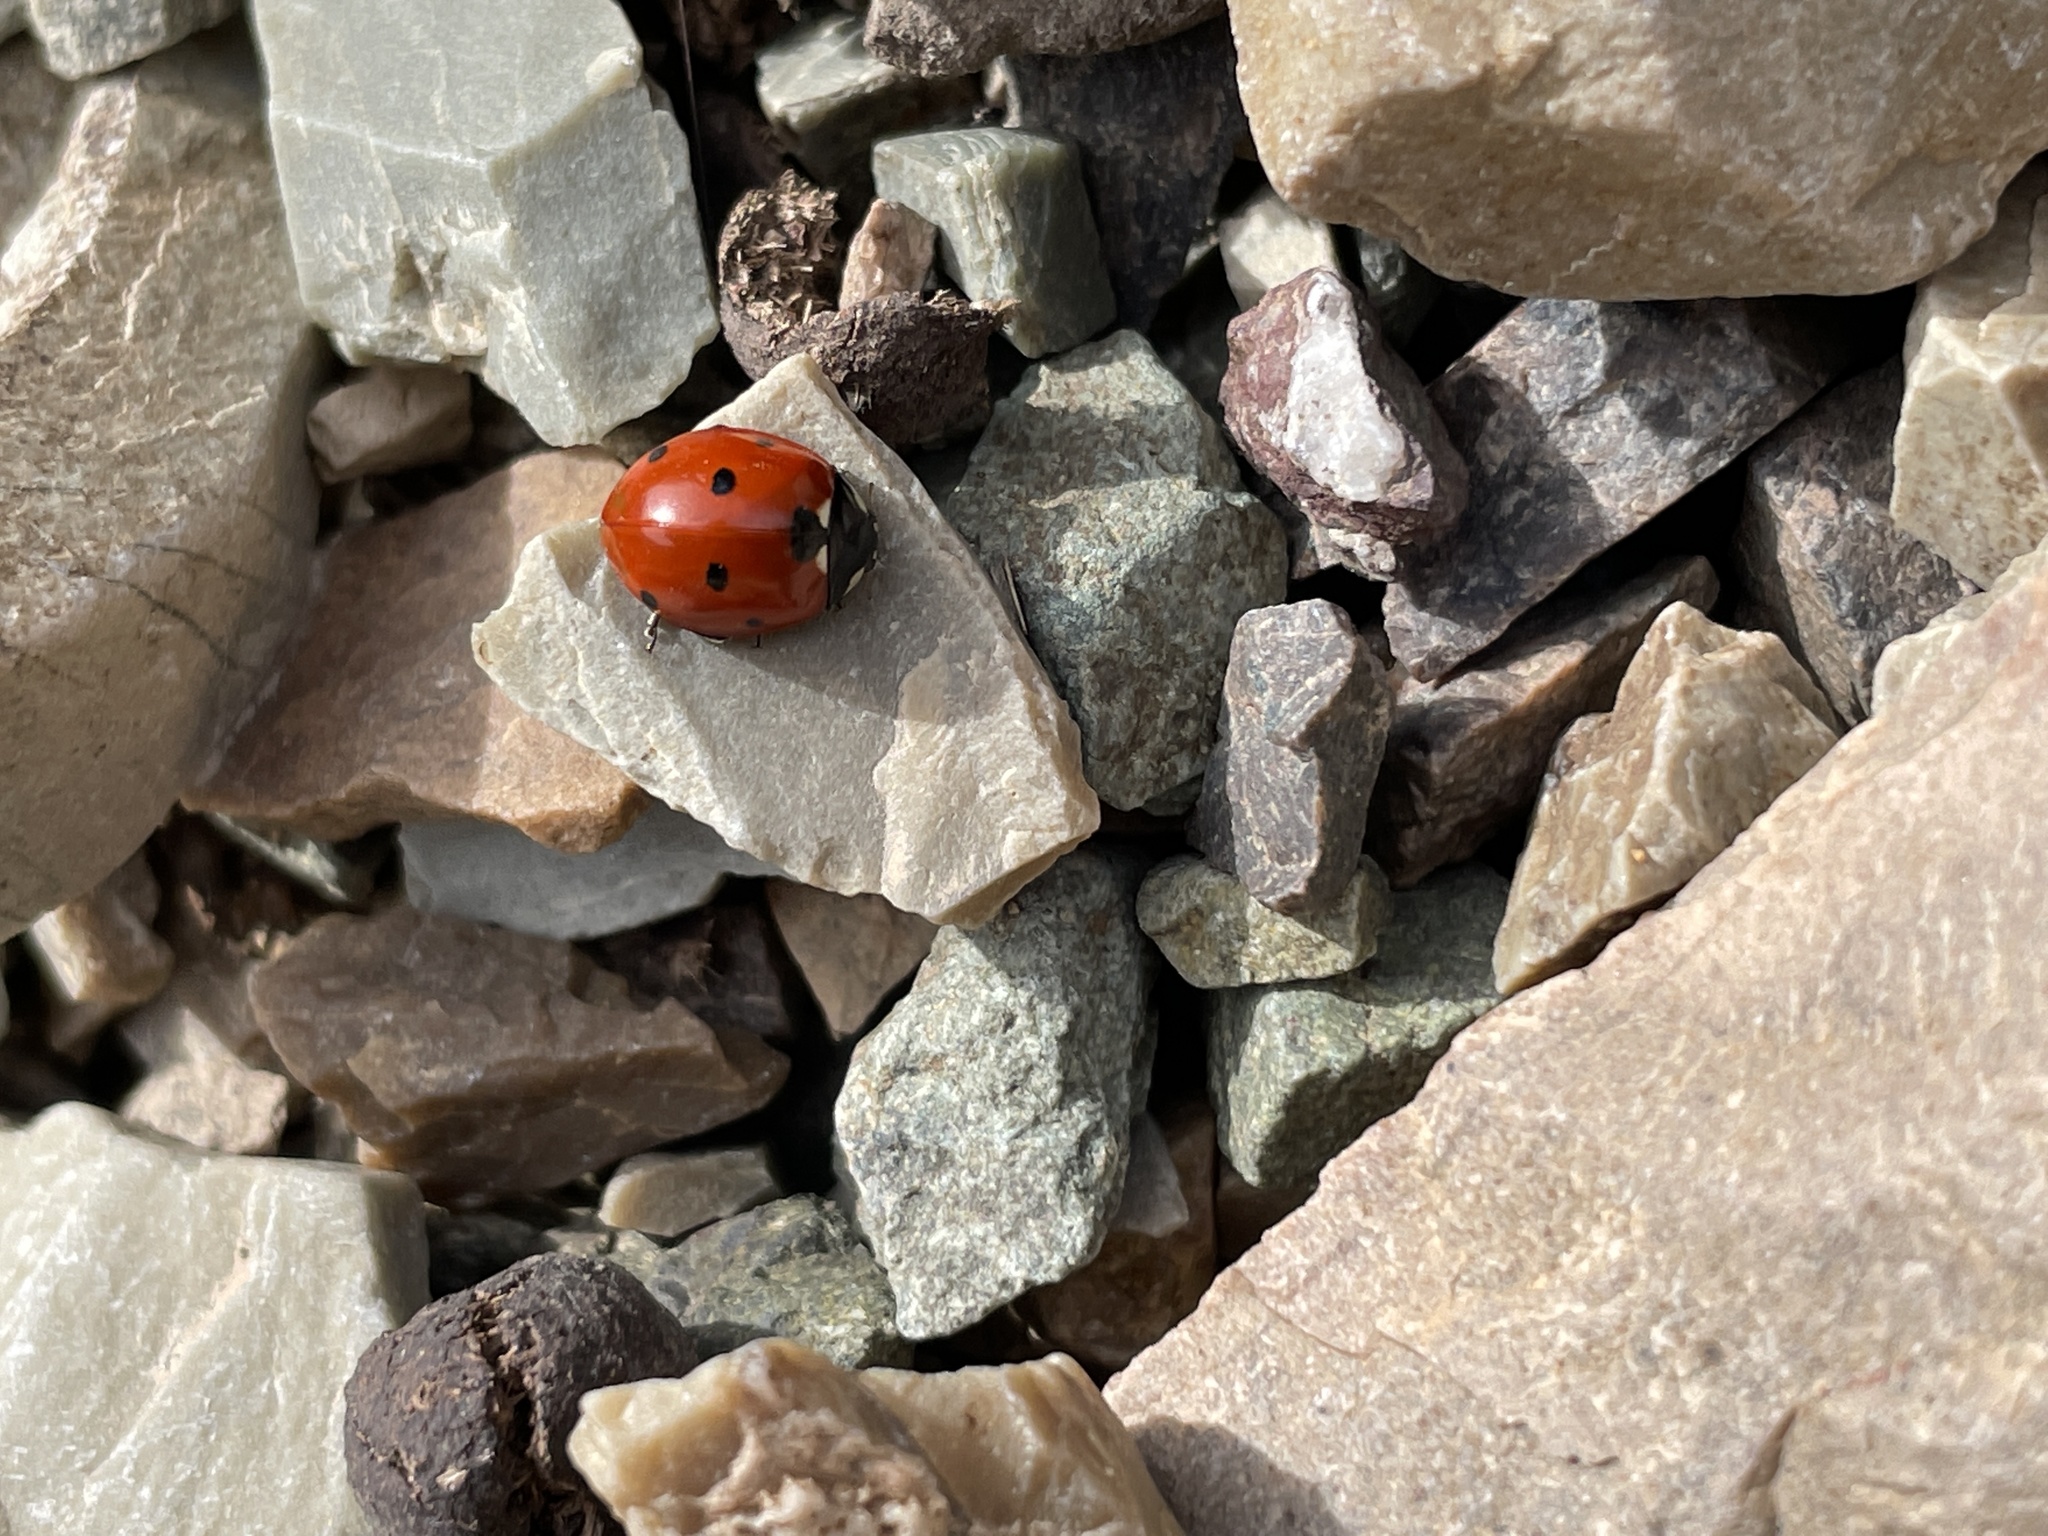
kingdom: Animalia
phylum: Arthropoda
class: Insecta
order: Coleoptera
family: Coccinellidae
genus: Coccinella
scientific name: Coccinella septempunctata
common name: Sevenspotted lady beetle
